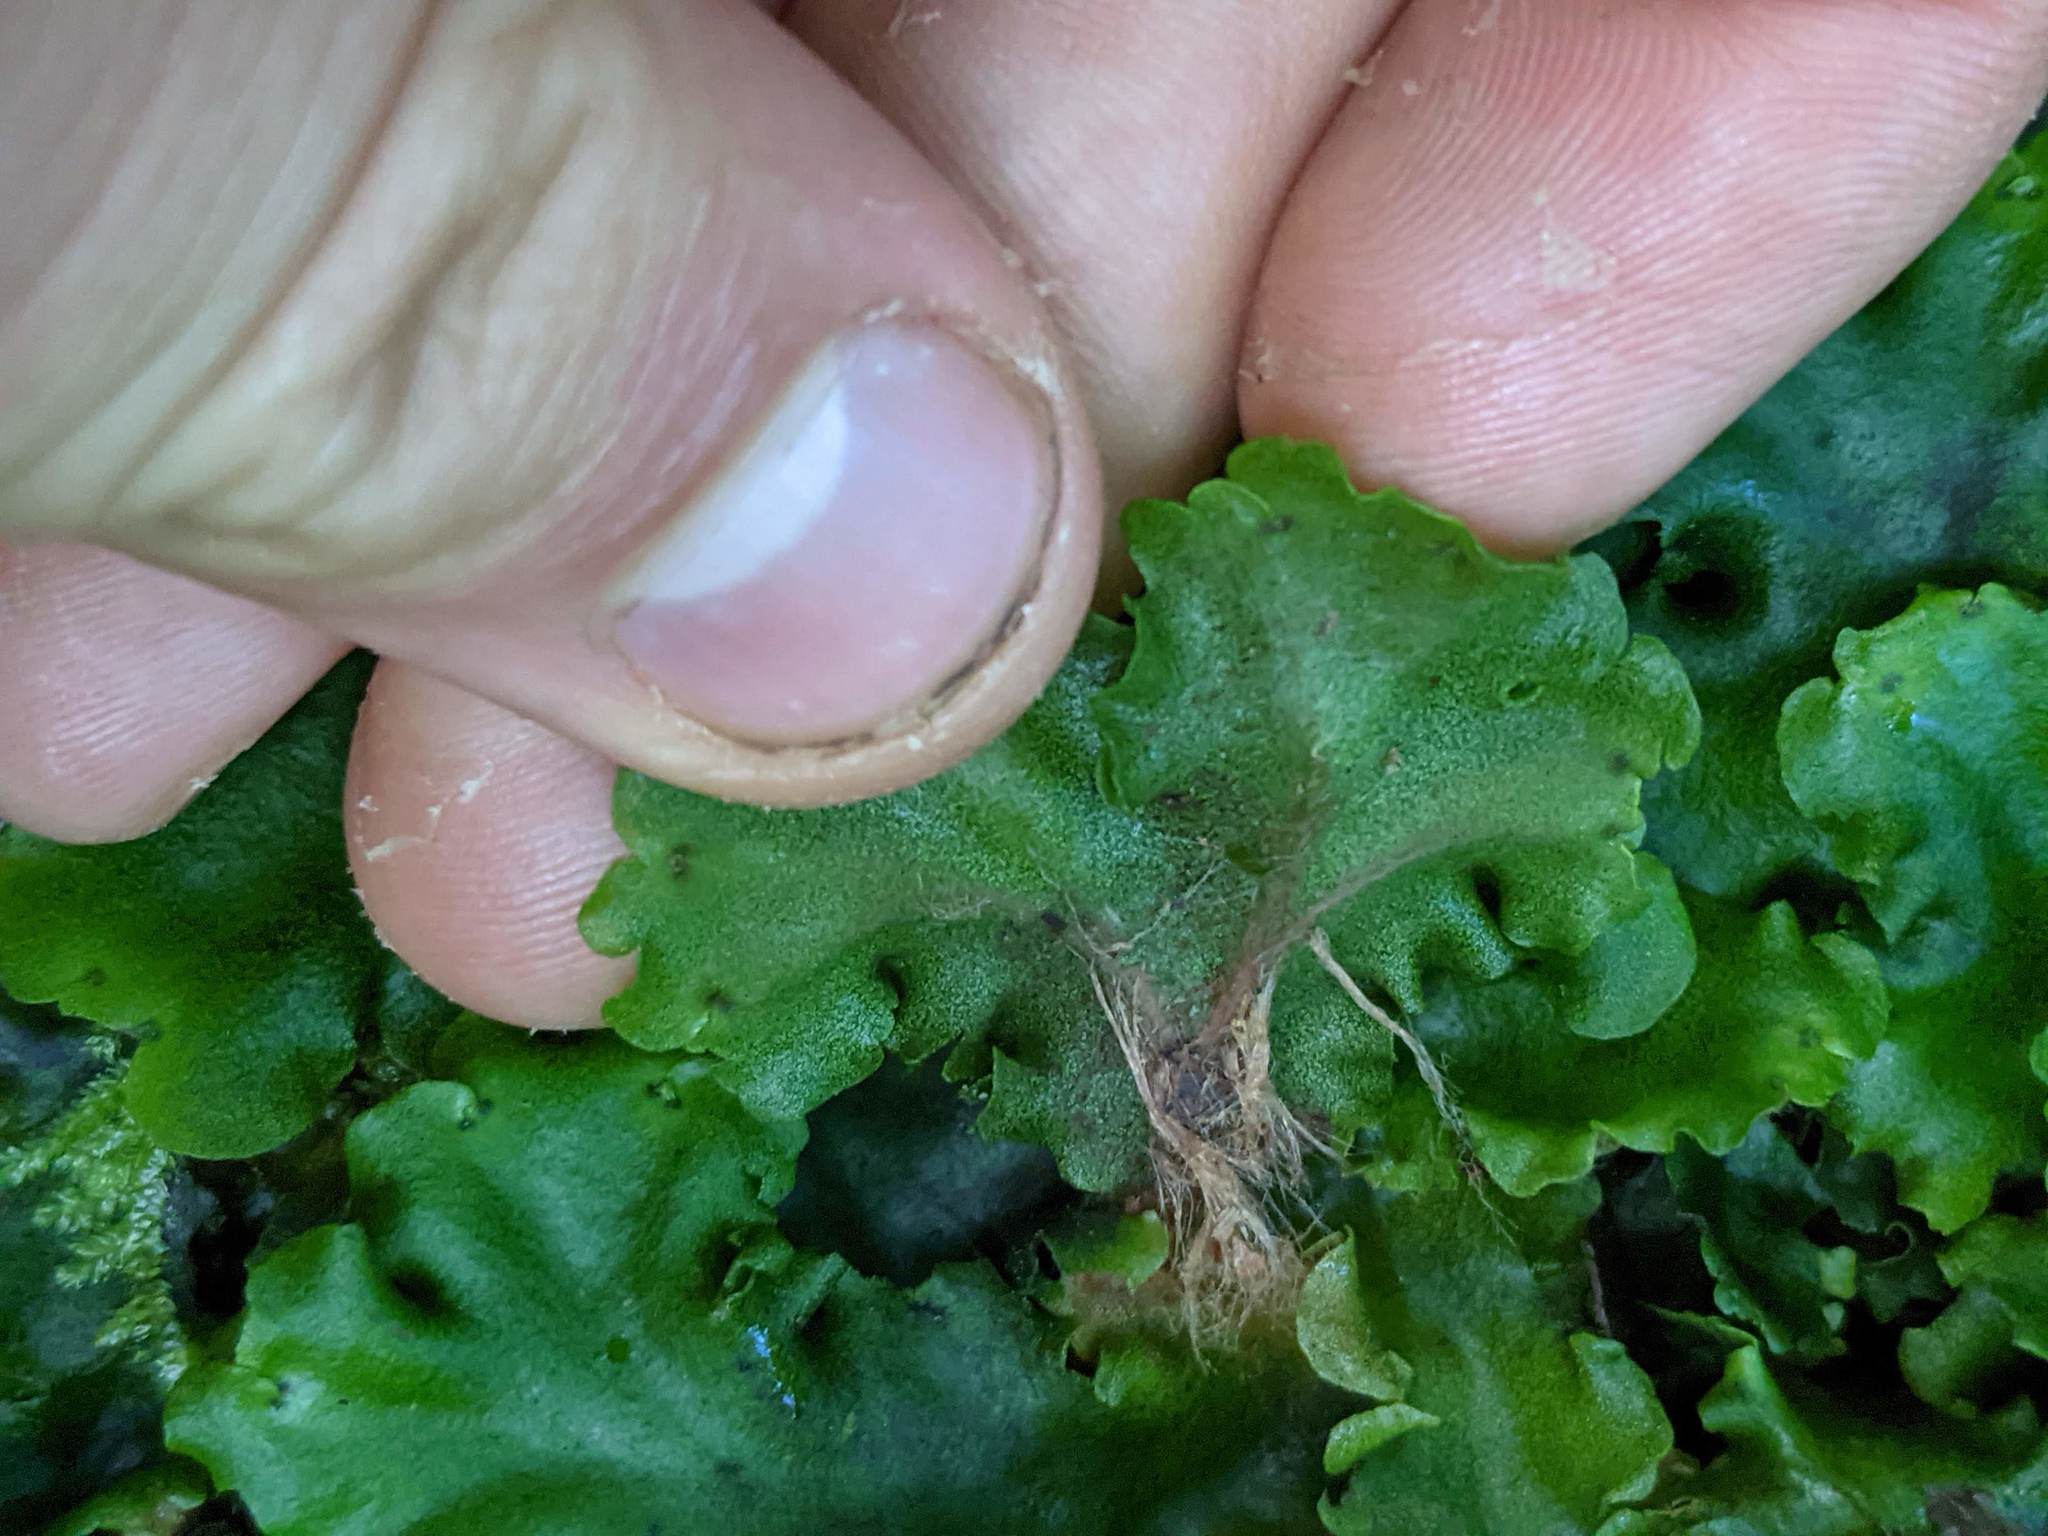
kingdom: Plantae
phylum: Marchantiophyta
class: Marchantiopsida
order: Marchantiales
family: Monocleaceae
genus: Monoclea
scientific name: Monoclea gottschei
